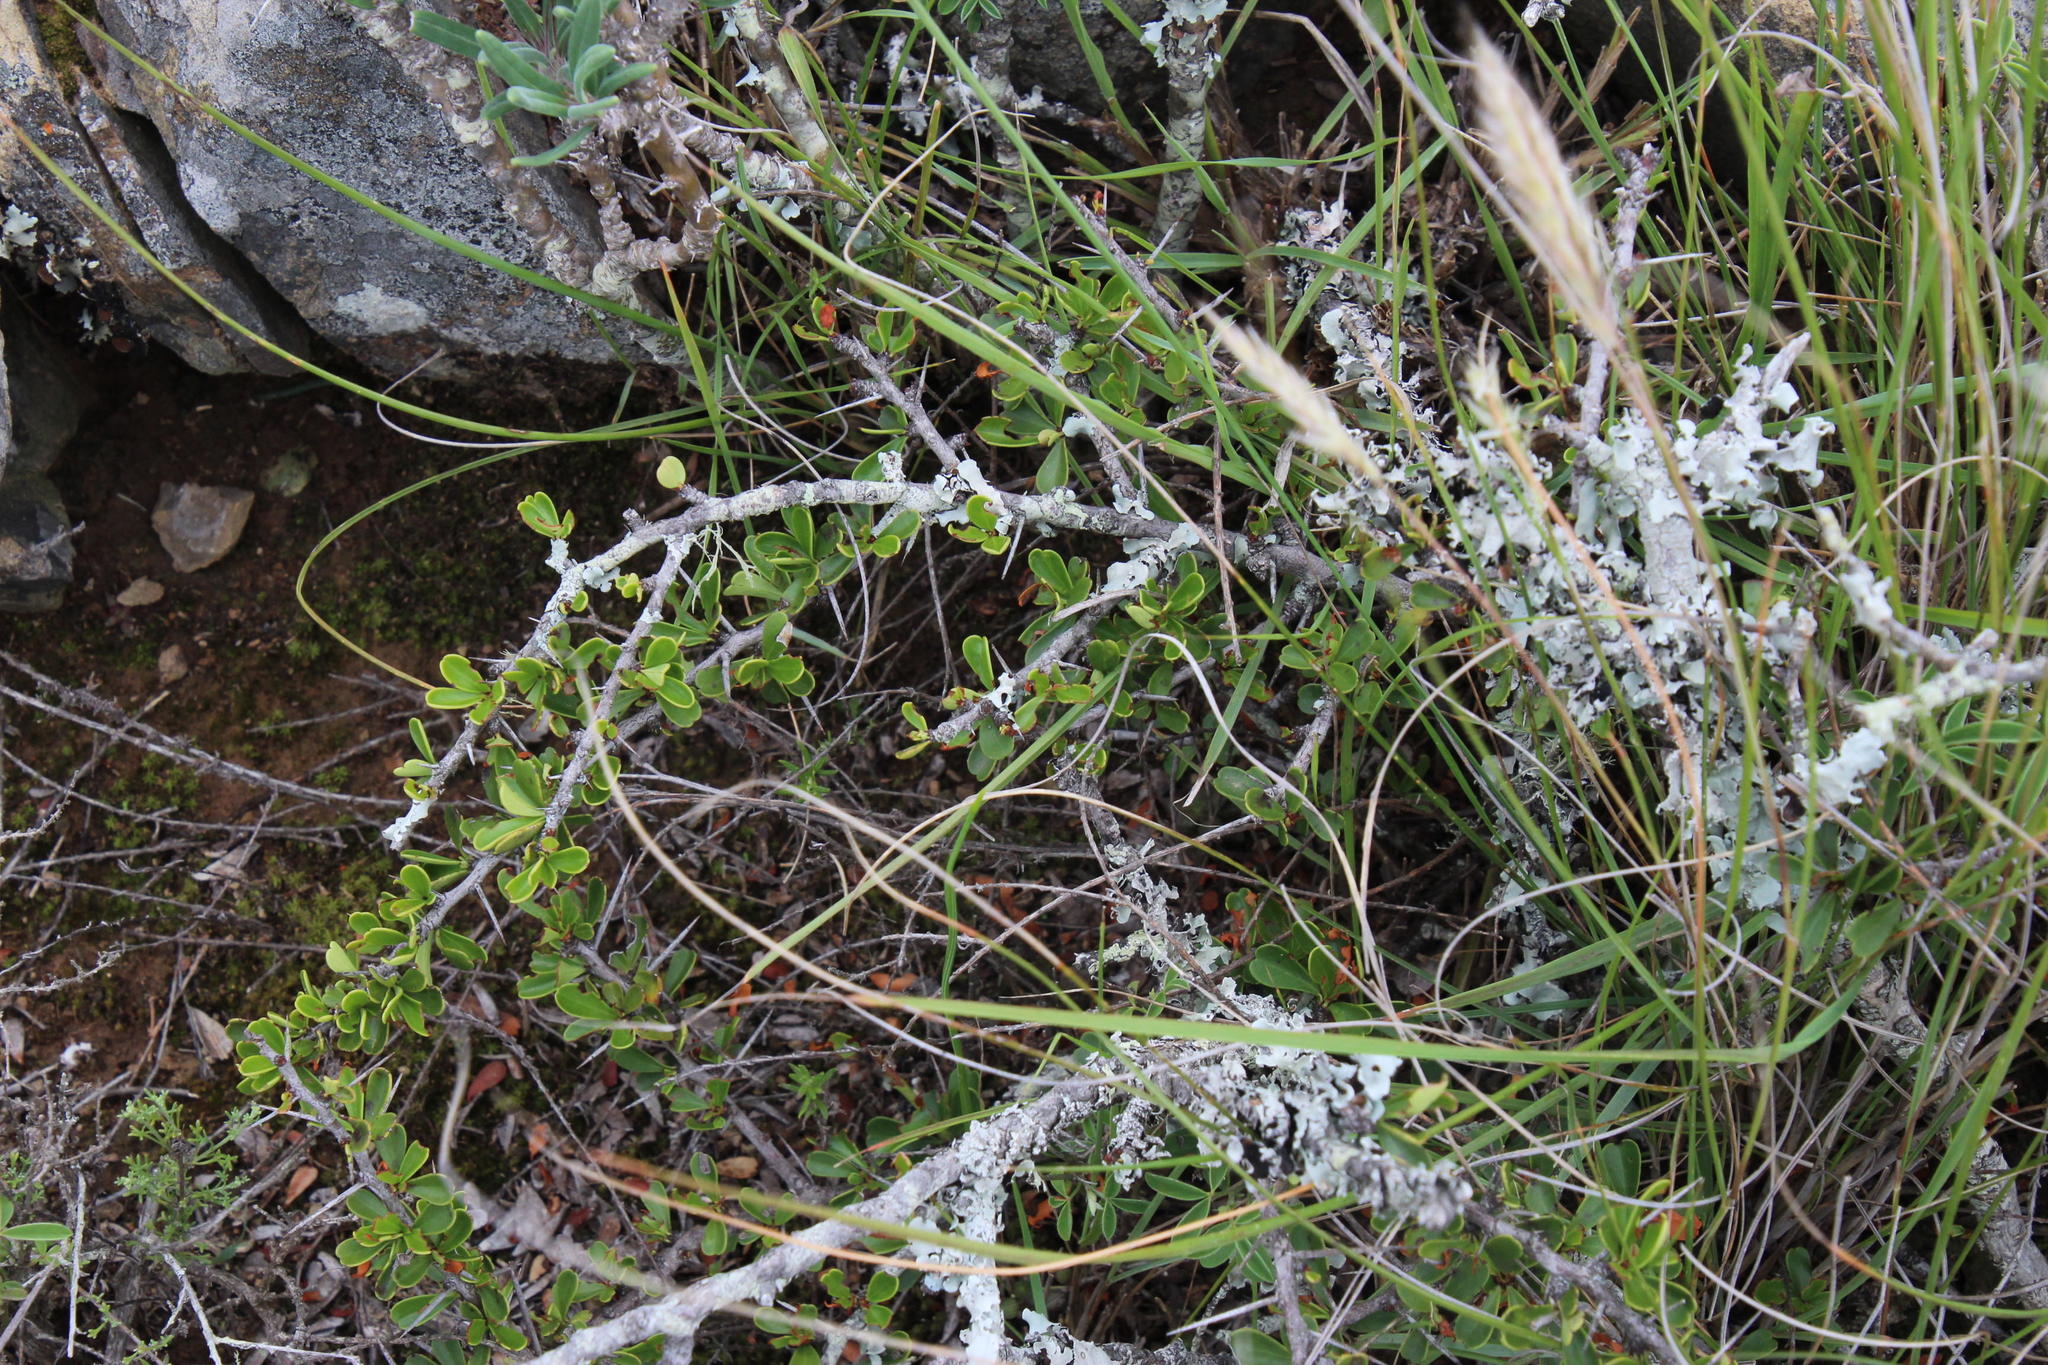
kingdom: Plantae
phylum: Tracheophyta
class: Magnoliopsida
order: Celastrales
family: Celastraceae
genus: Gymnosporia
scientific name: Gymnosporia capitata
